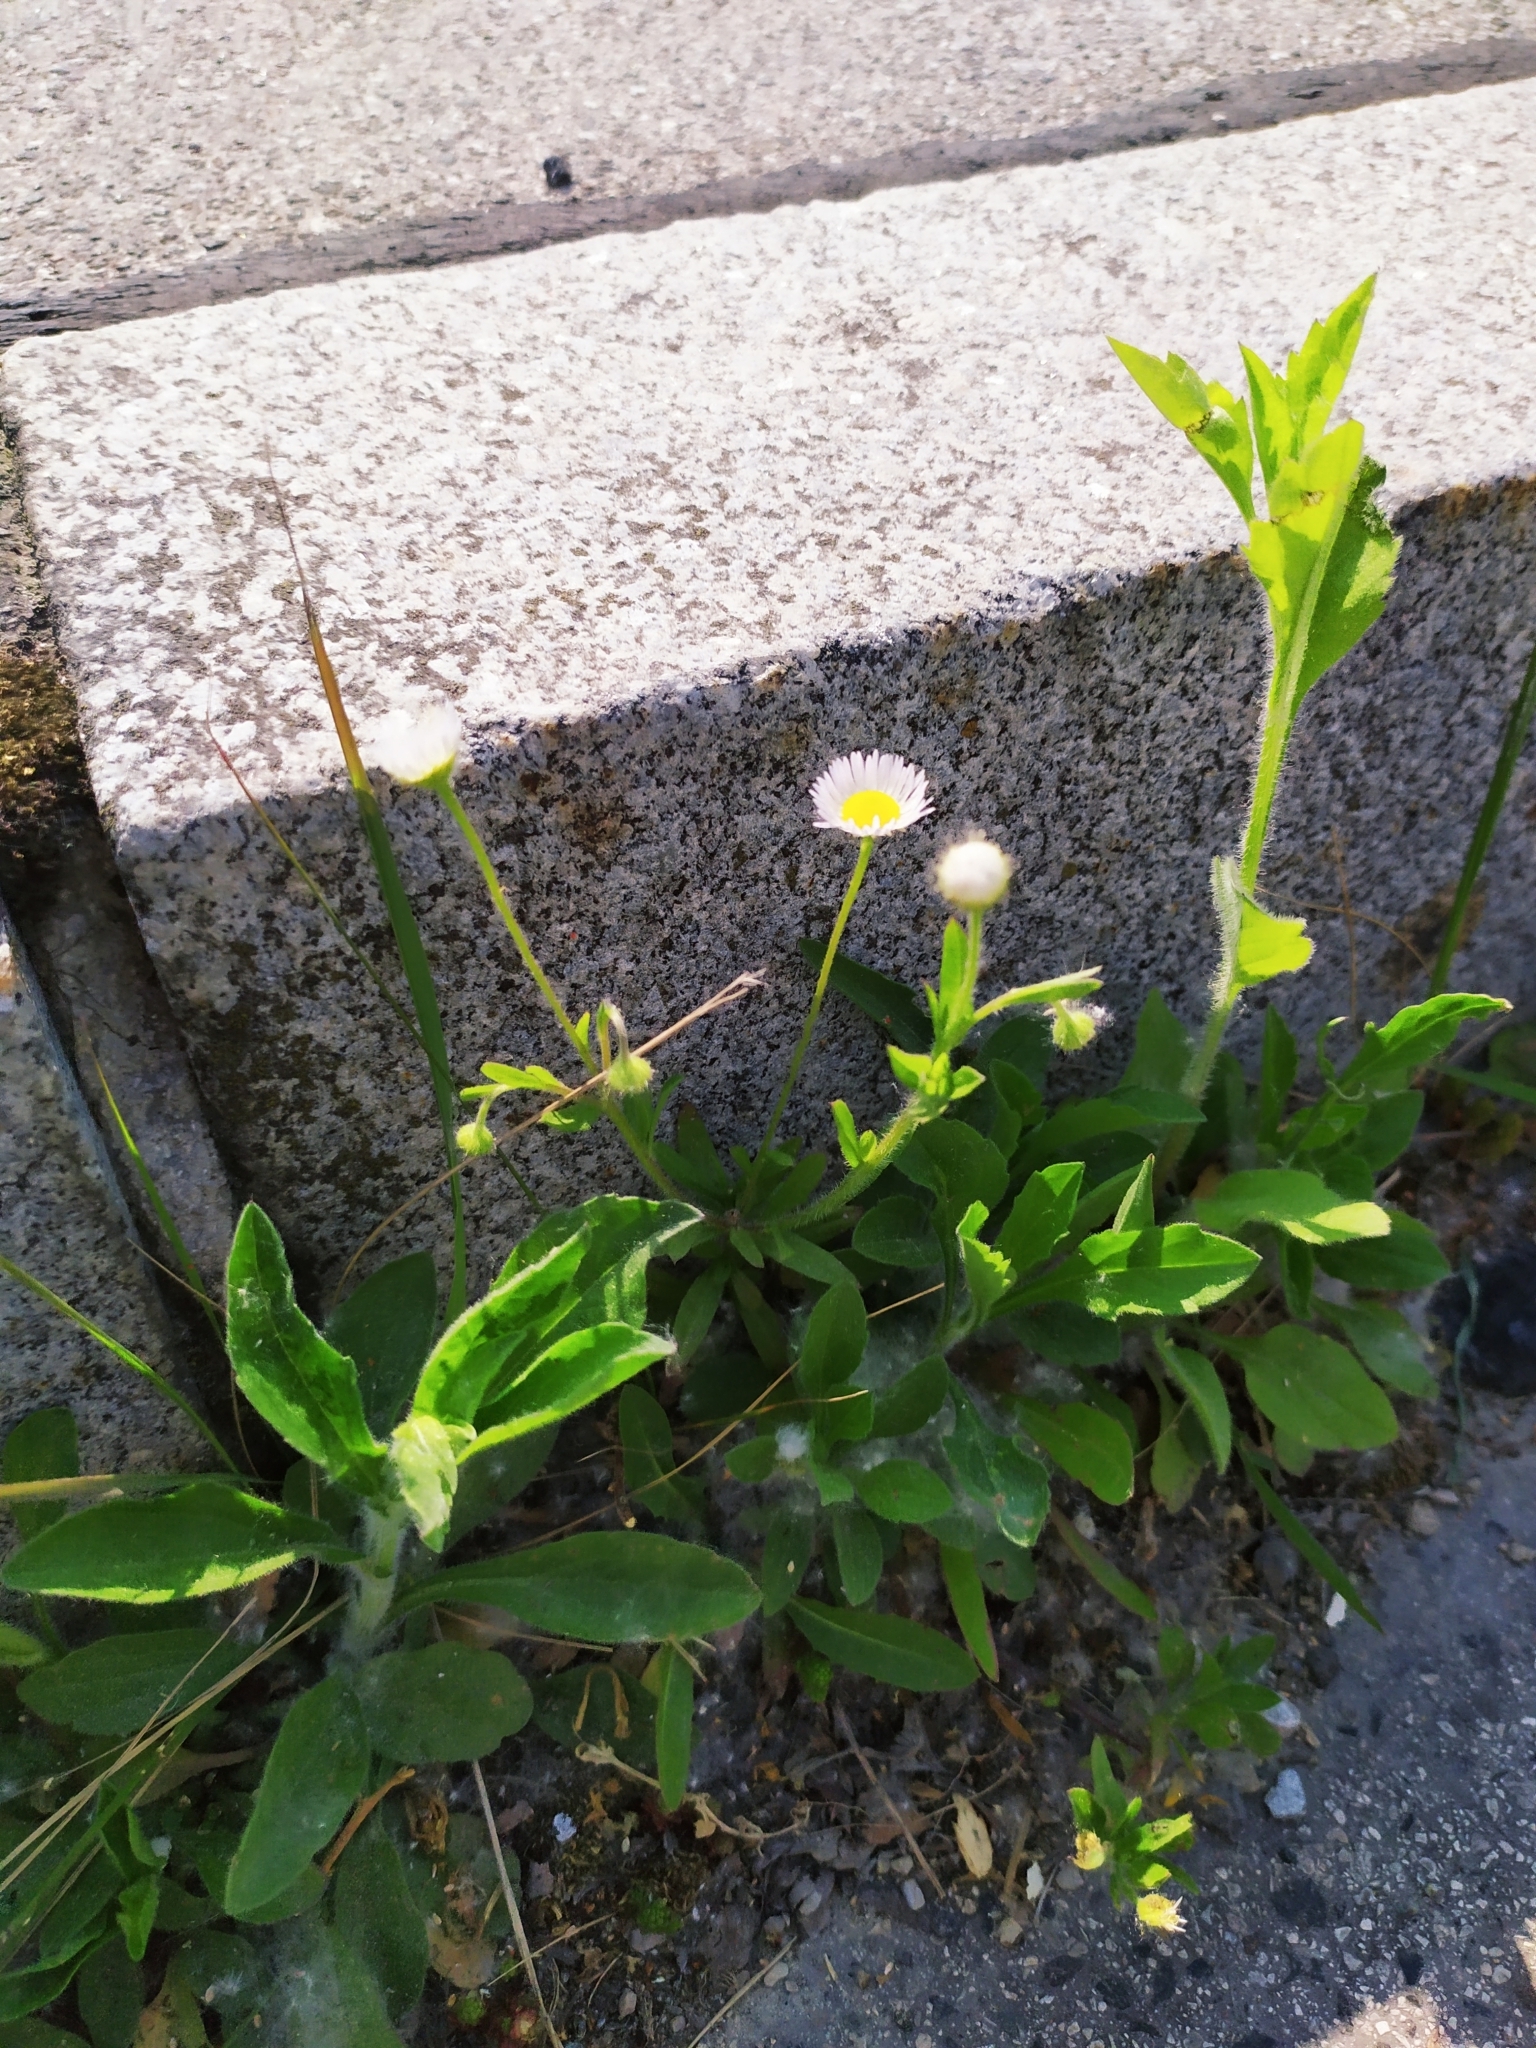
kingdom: Plantae
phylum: Tracheophyta
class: Magnoliopsida
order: Asterales
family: Asteraceae
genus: Erigeron
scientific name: Erigeron annuus
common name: Tall fleabane
